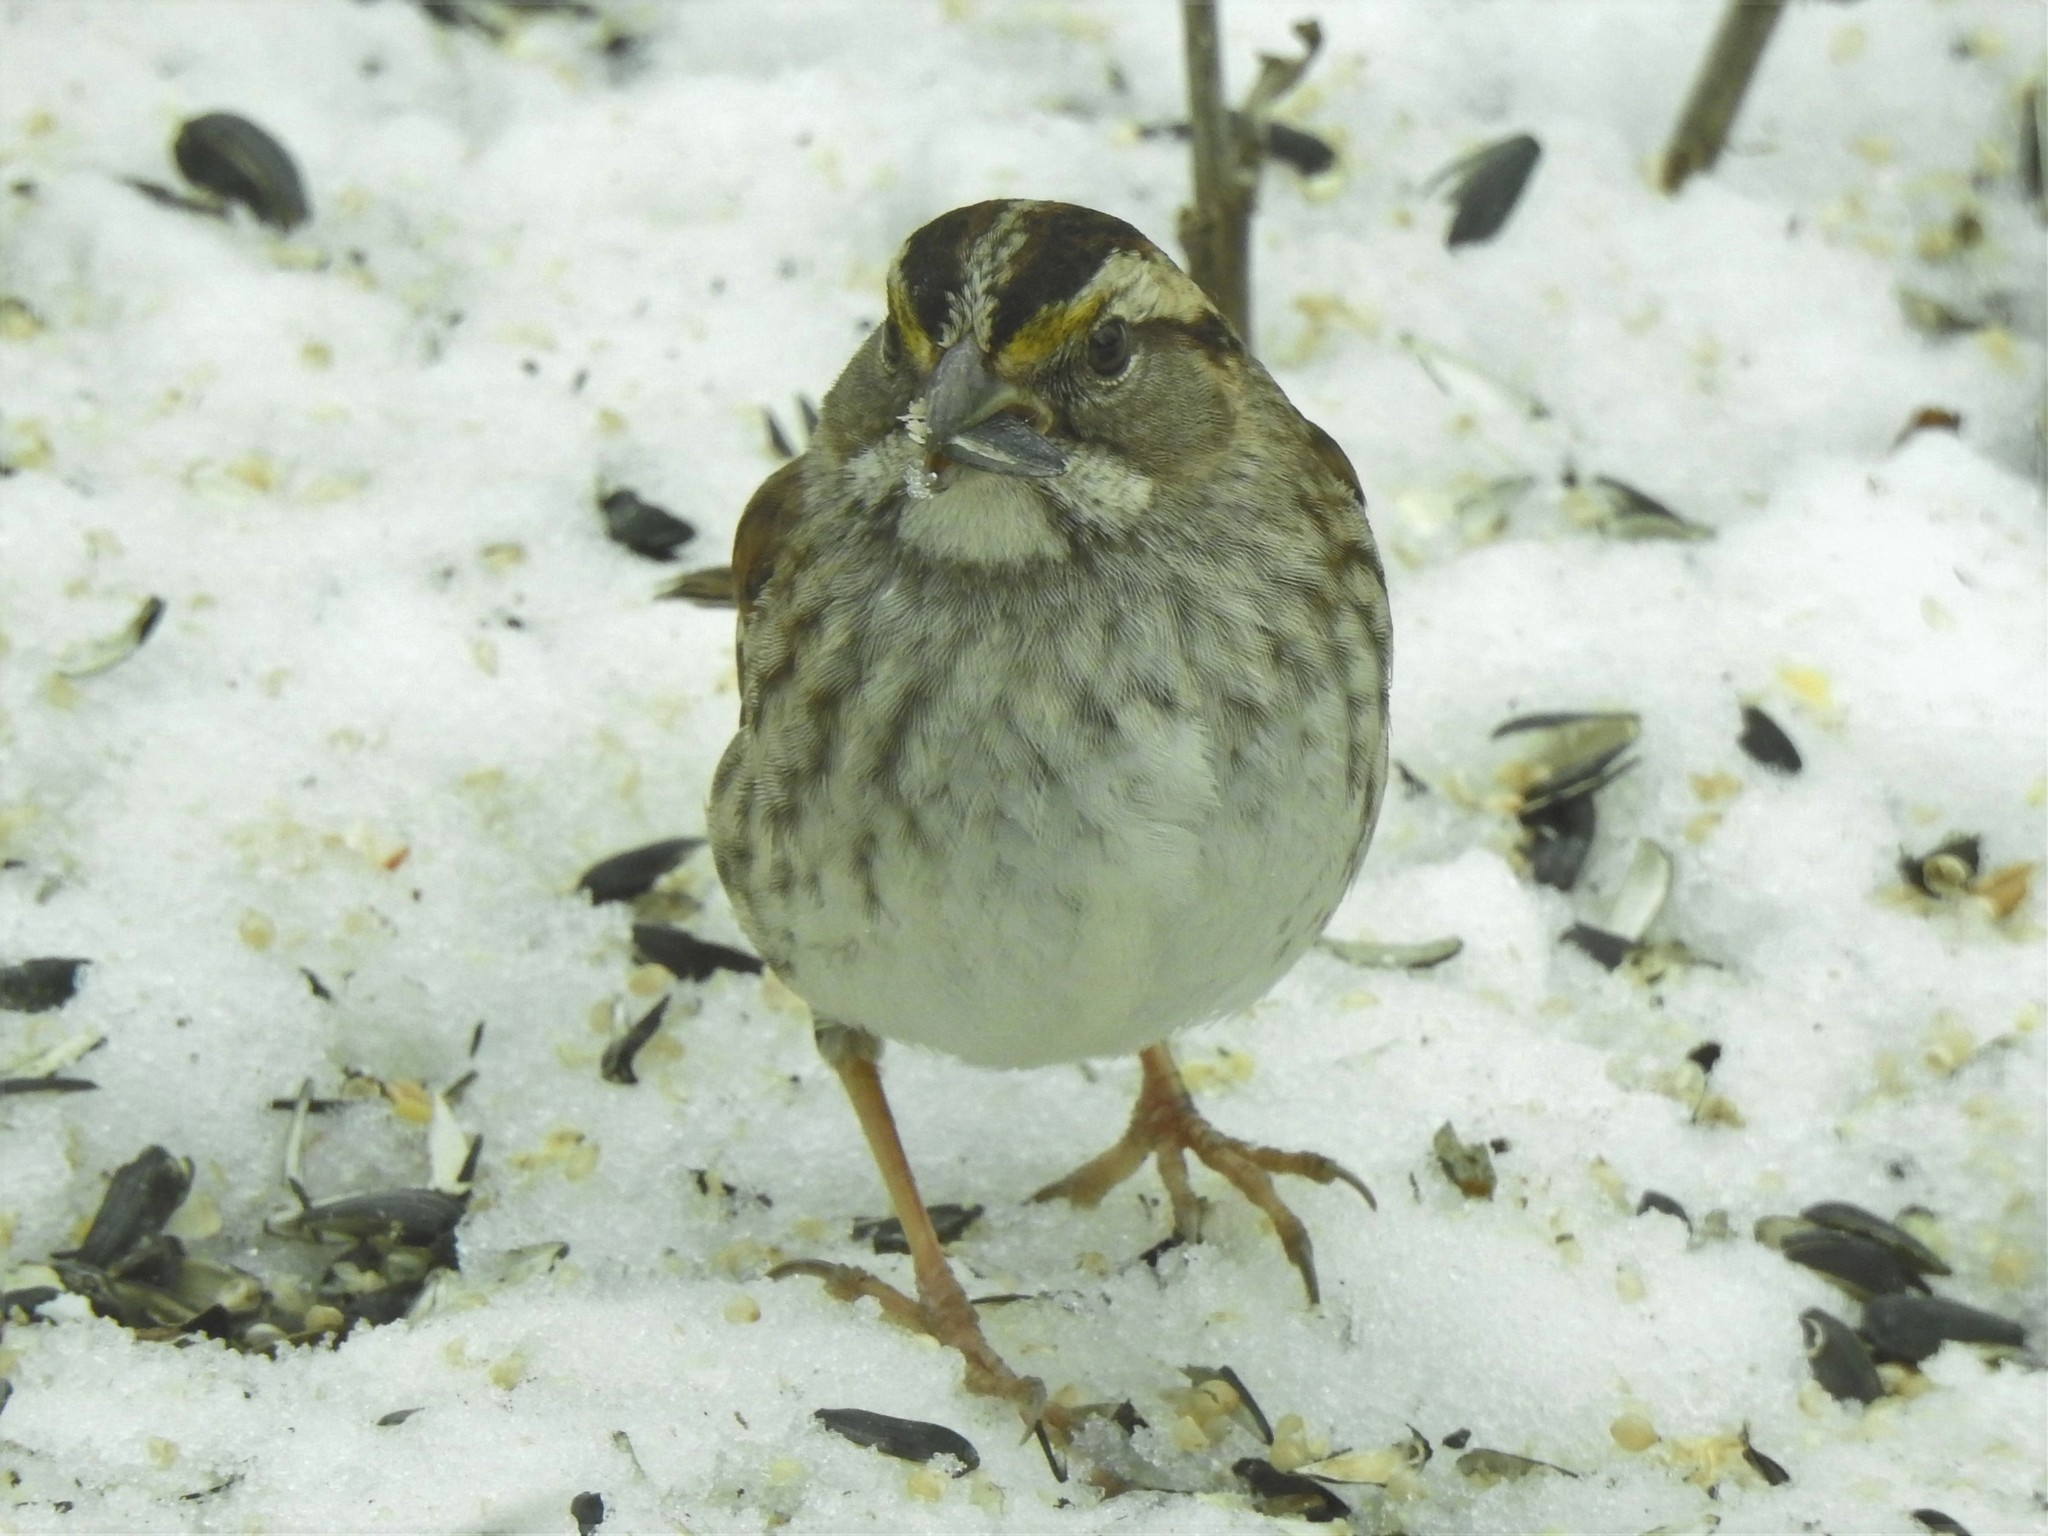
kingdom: Animalia
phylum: Chordata
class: Aves
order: Passeriformes
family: Passerellidae
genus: Zonotrichia
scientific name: Zonotrichia albicollis
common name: White-throated sparrow
